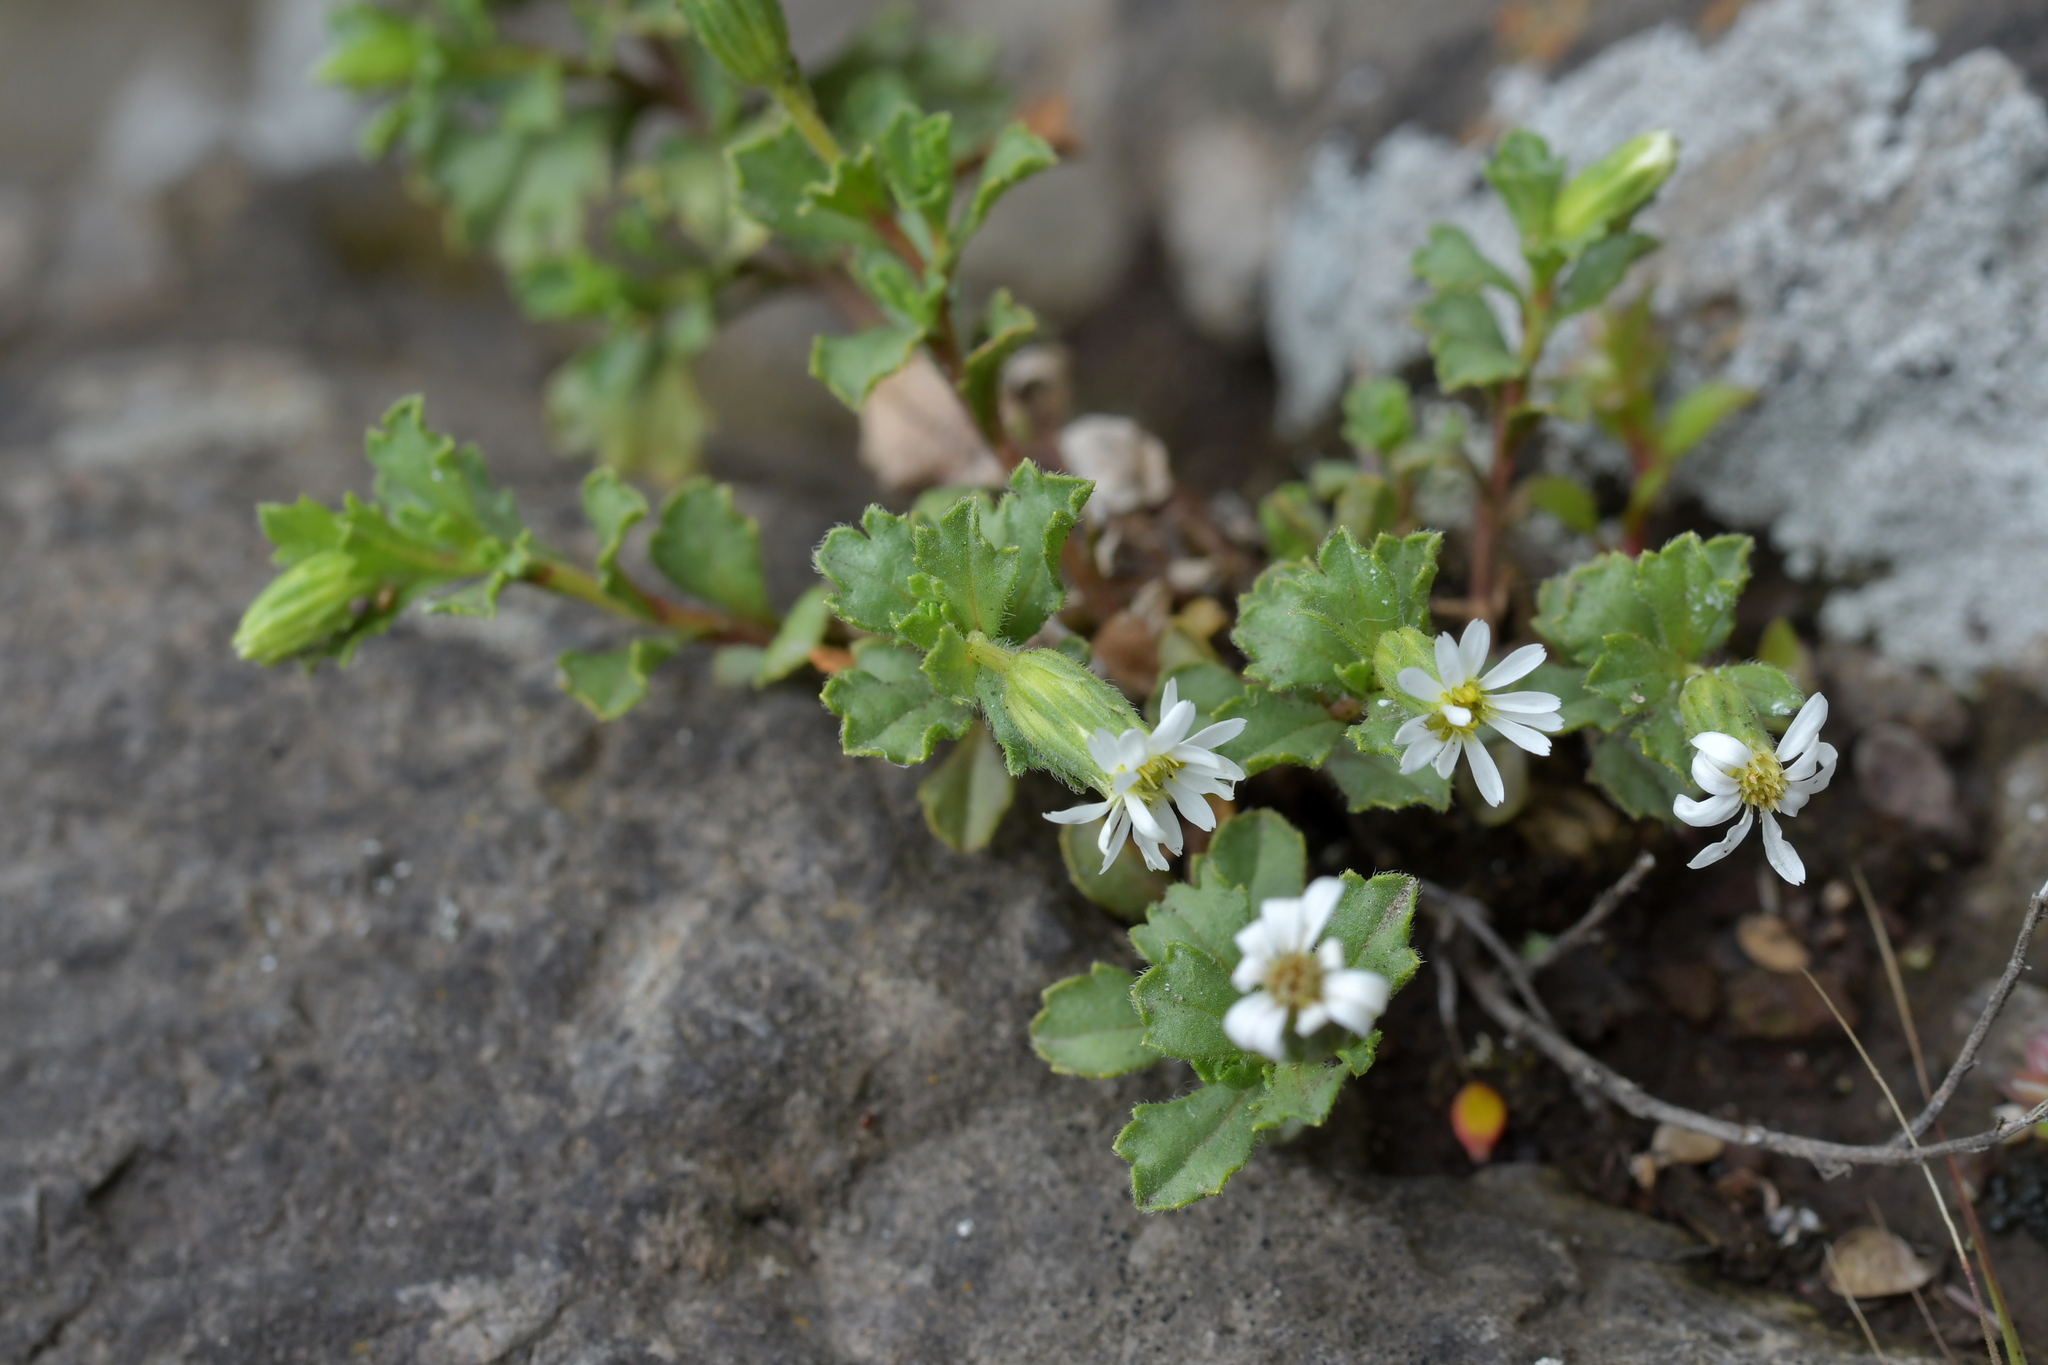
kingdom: Plantae
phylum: Tracheophyta
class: Magnoliopsida
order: Asterales
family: Asteraceae
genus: Vittadinia
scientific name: Vittadinia australis
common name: White fuzzweed
